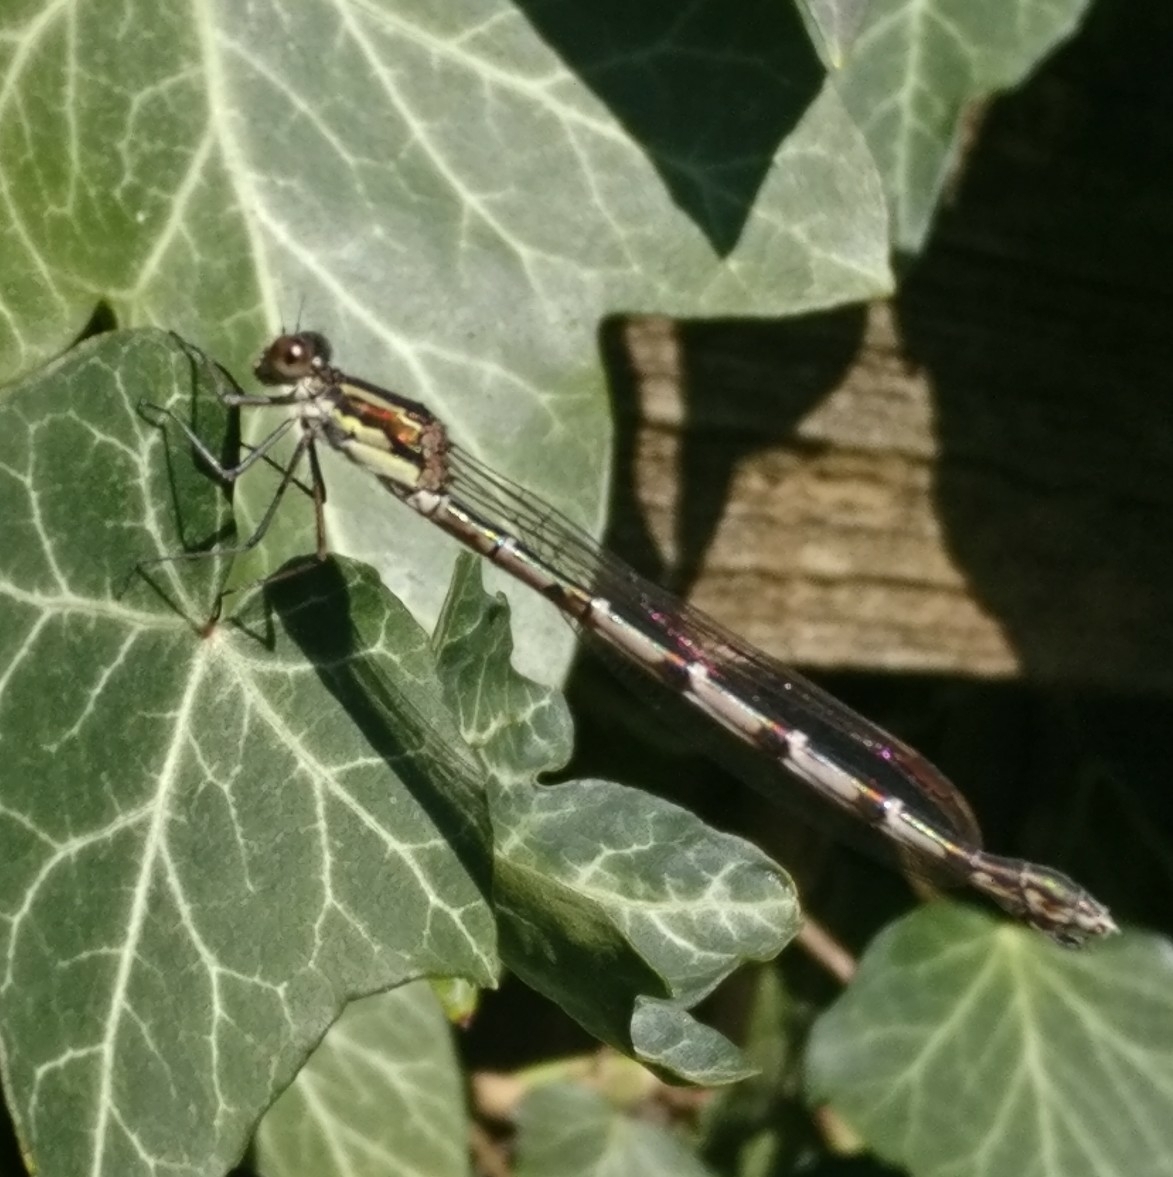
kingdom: Animalia
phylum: Arthropoda
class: Insecta
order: Odonata
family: Lestidae
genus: Austrolestes
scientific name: Austrolestes colensonis
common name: Blue damselfly
